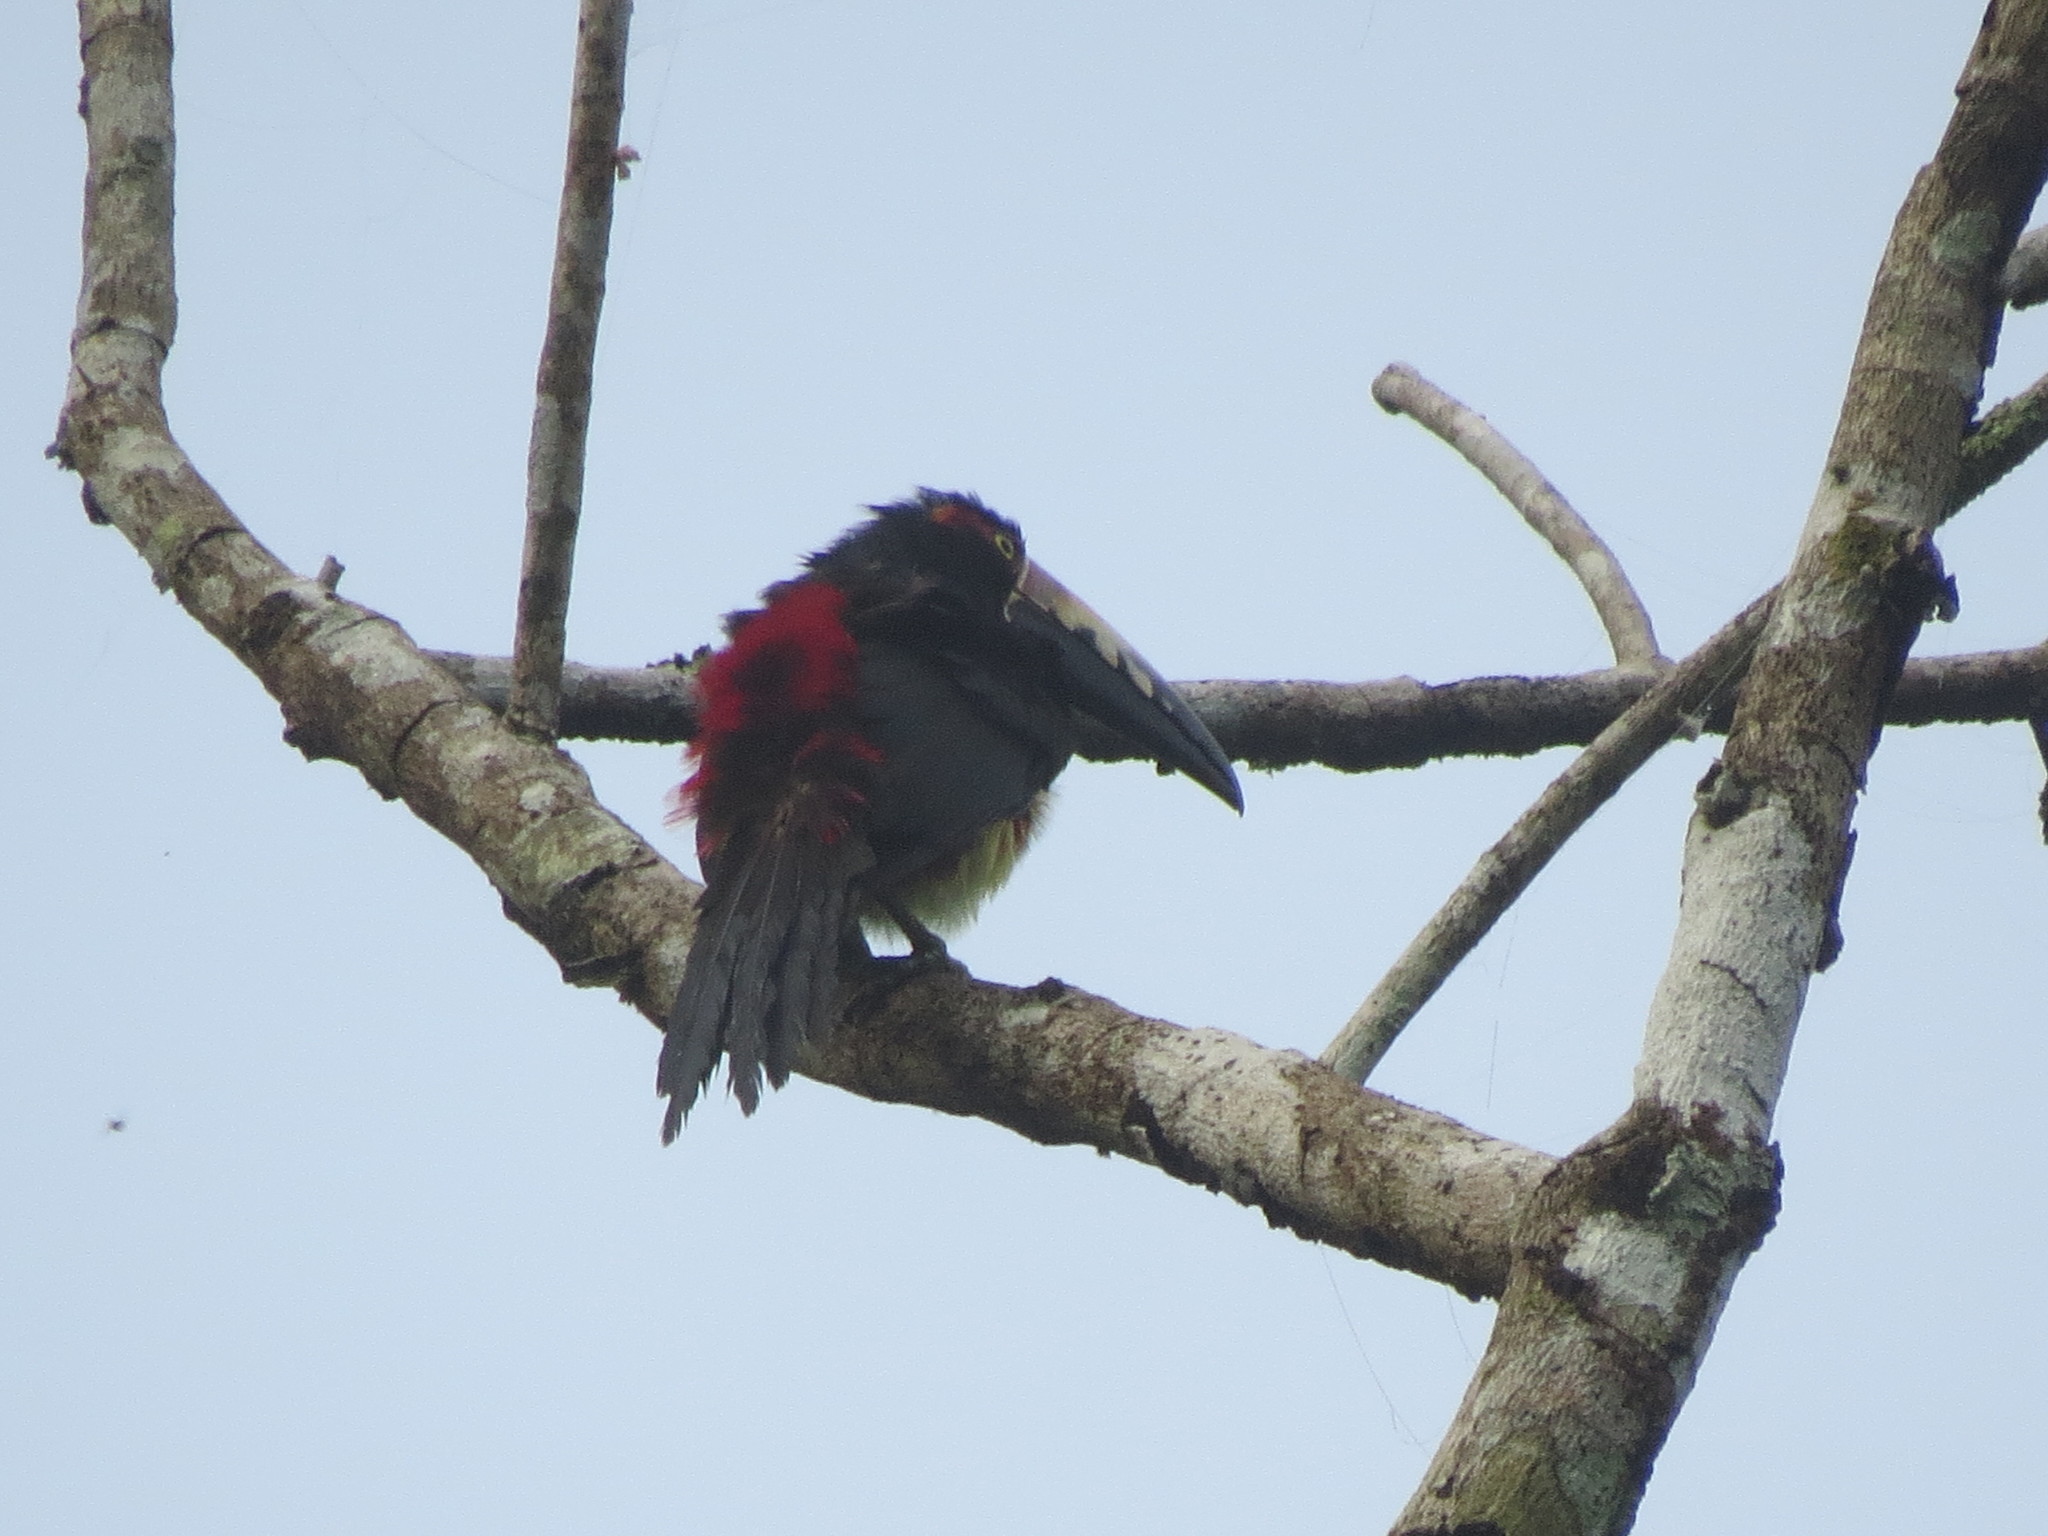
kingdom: Animalia
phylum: Chordata
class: Aves
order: Piciformes
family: Ramphastidae
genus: Pteroglossus
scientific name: Pteroglossus torquatus
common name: Collared aracari
